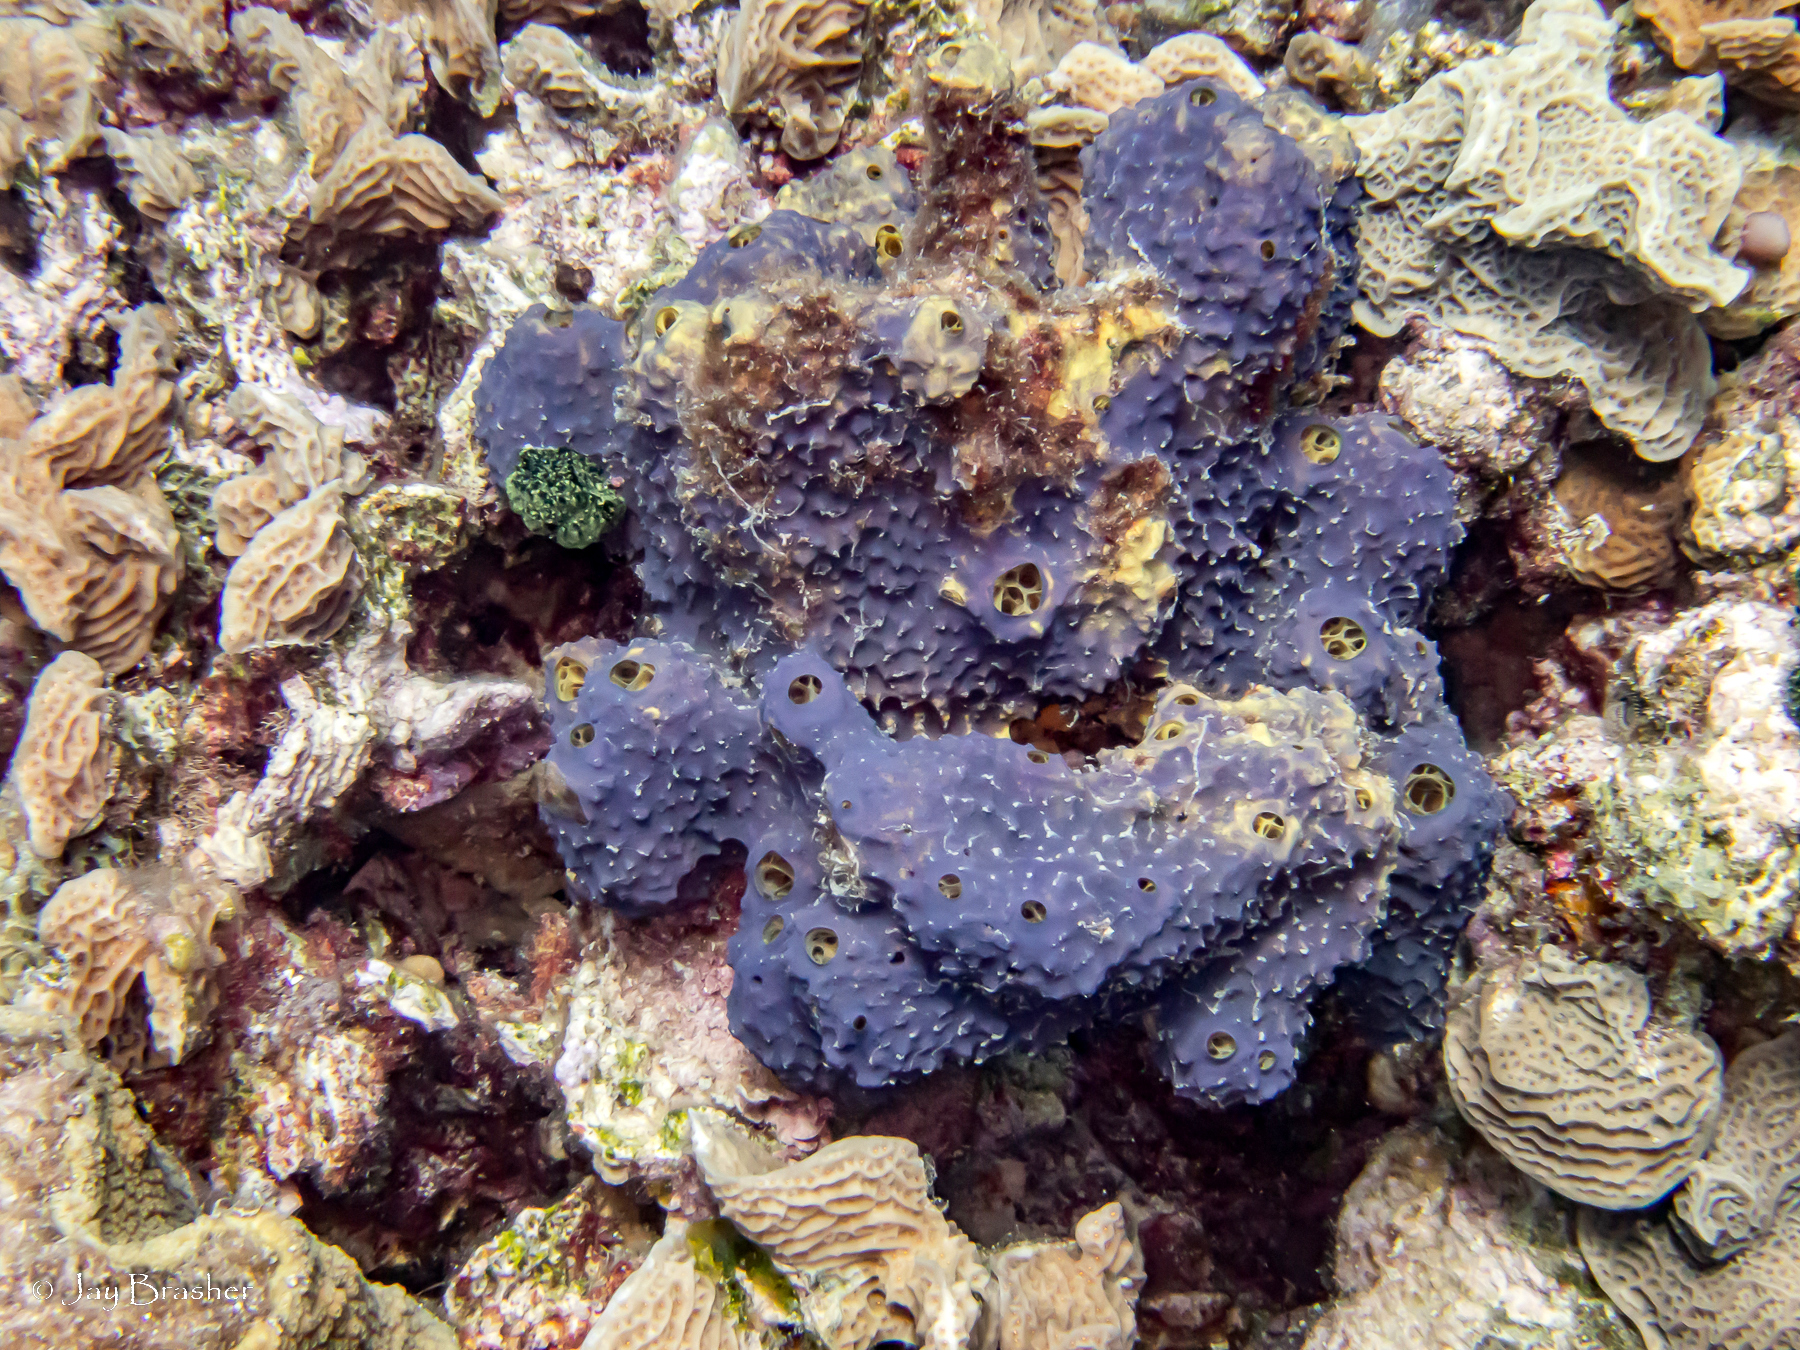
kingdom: Animalia
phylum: Porifera
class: Demospongiae
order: Verongiida
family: Aplysinidae
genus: Aiolochroia
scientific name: Aiolochroia crassa
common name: Branching tube sponge
